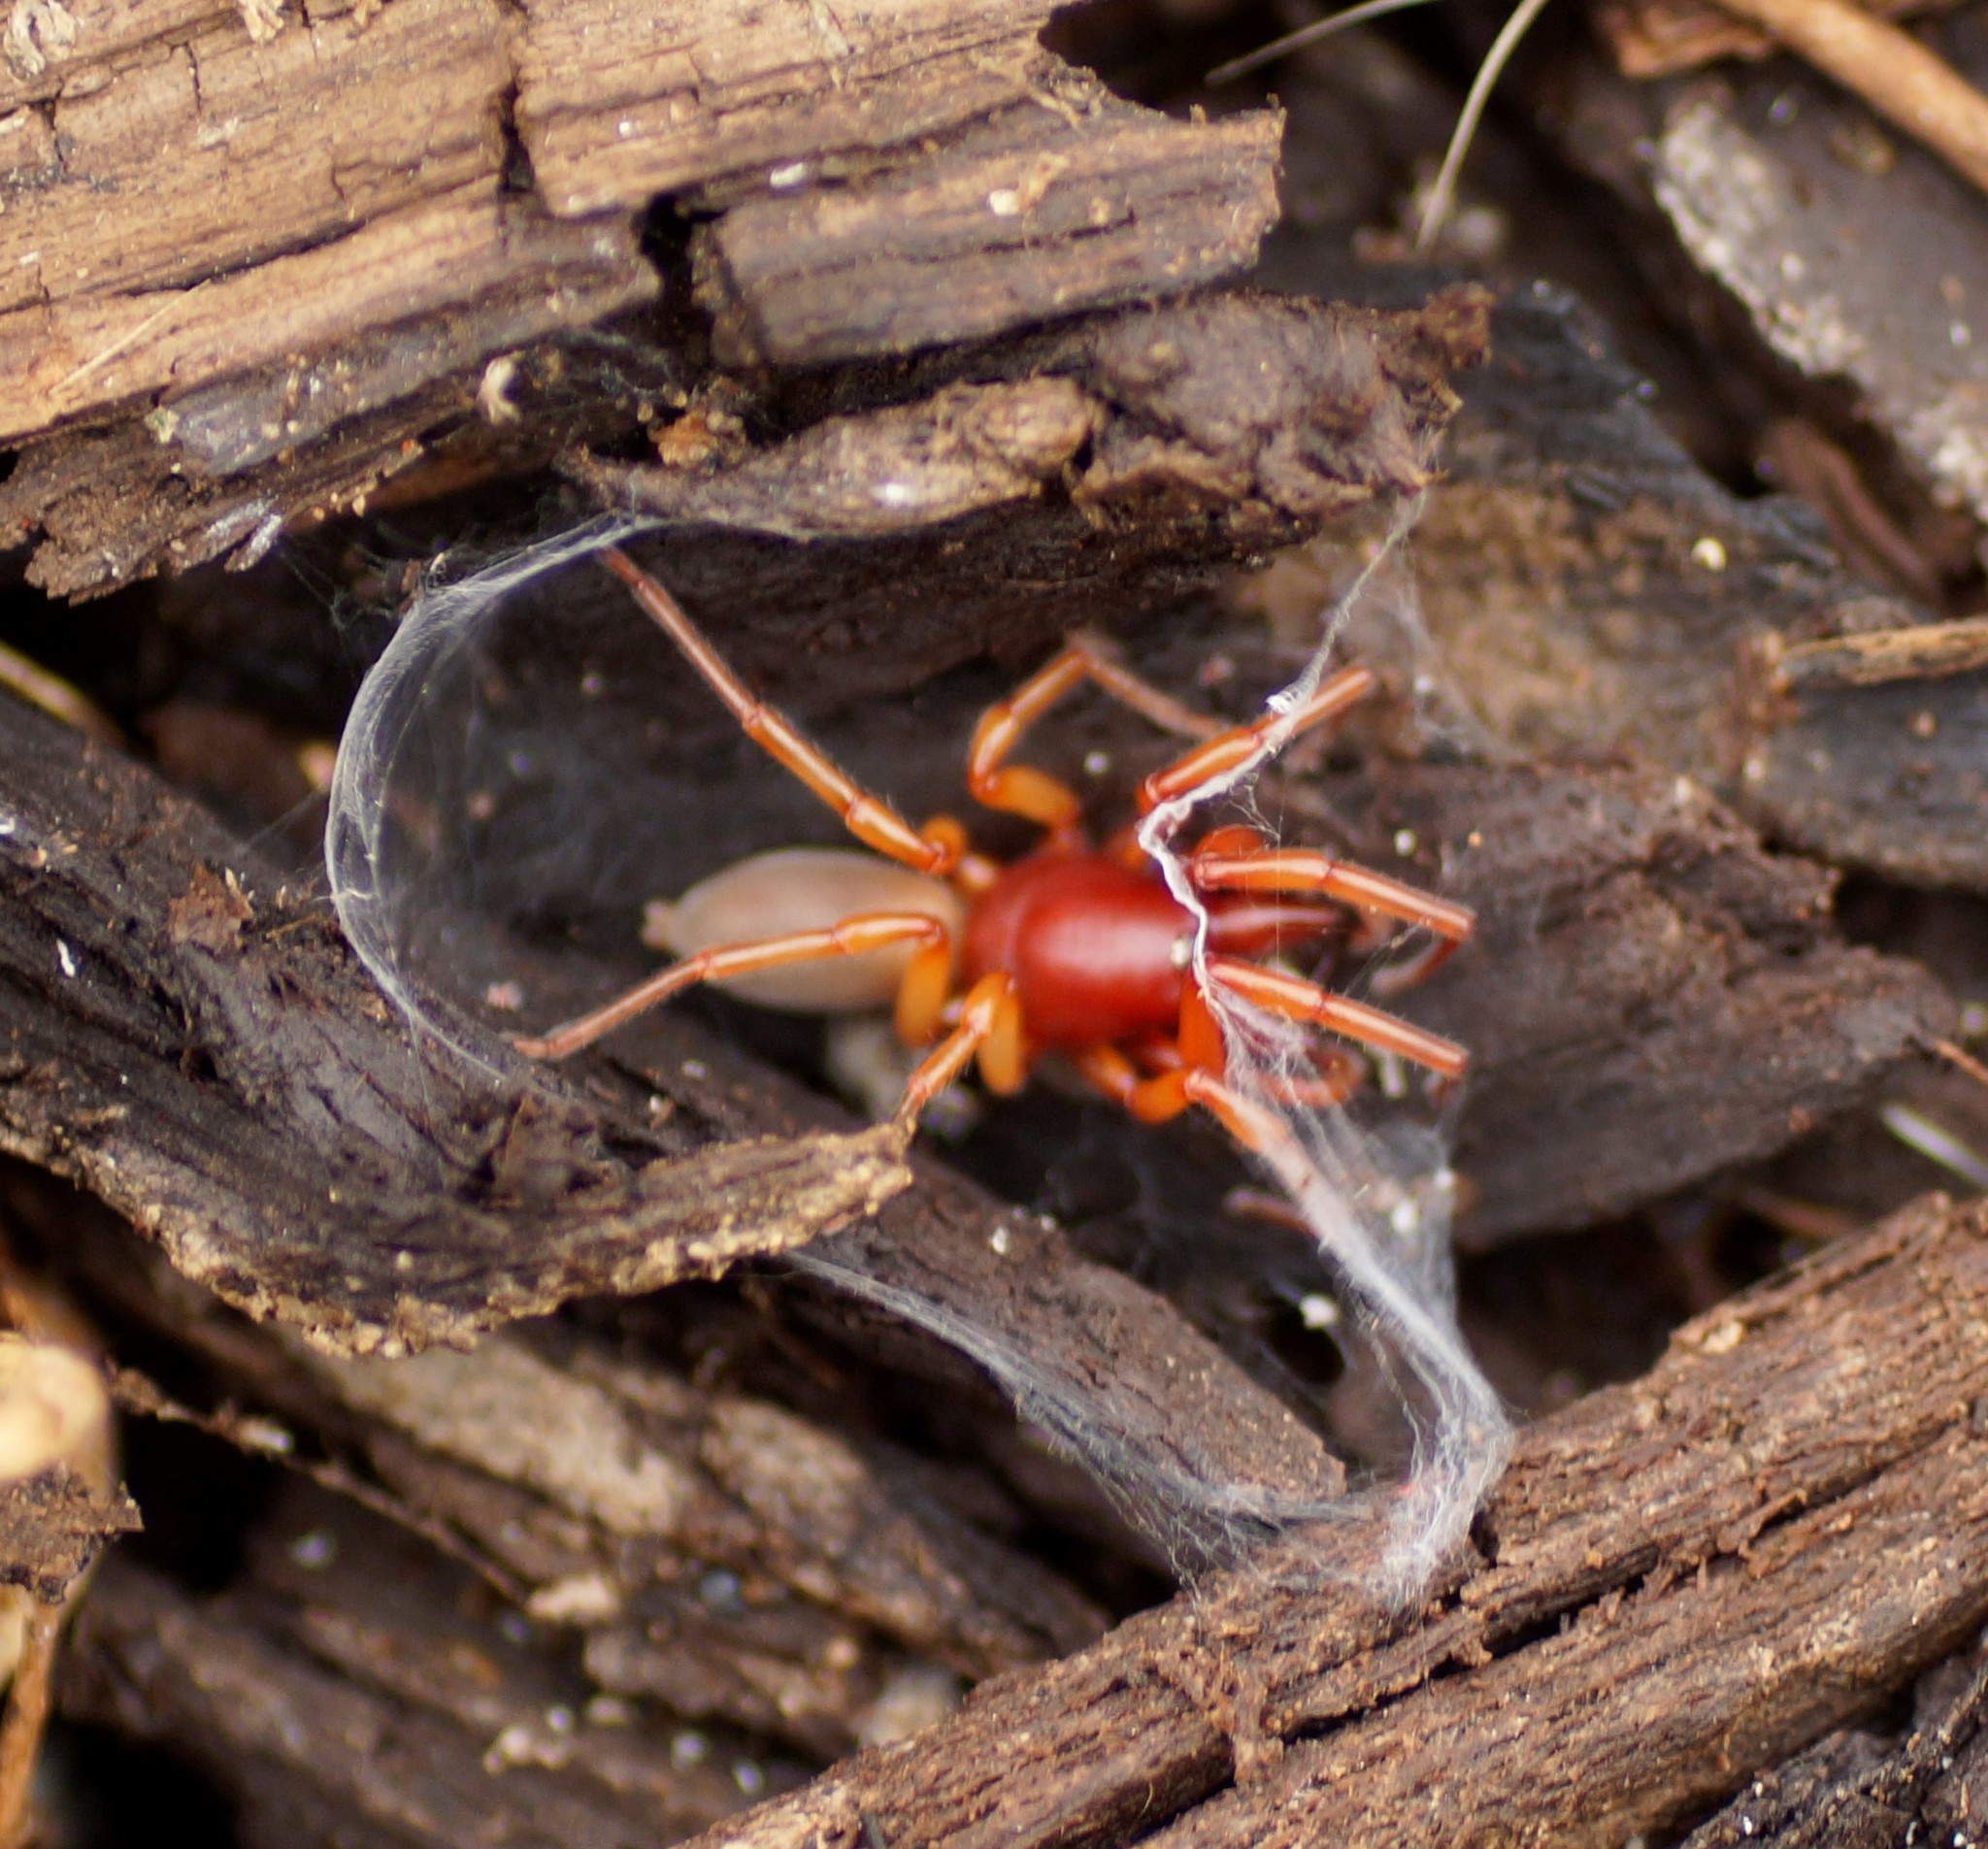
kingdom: Animalia
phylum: Arthropoda
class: Arachnida
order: Araneae
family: Dysderidae
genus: Dysdera
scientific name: Dysdera crocata
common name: Woodlouse spider
